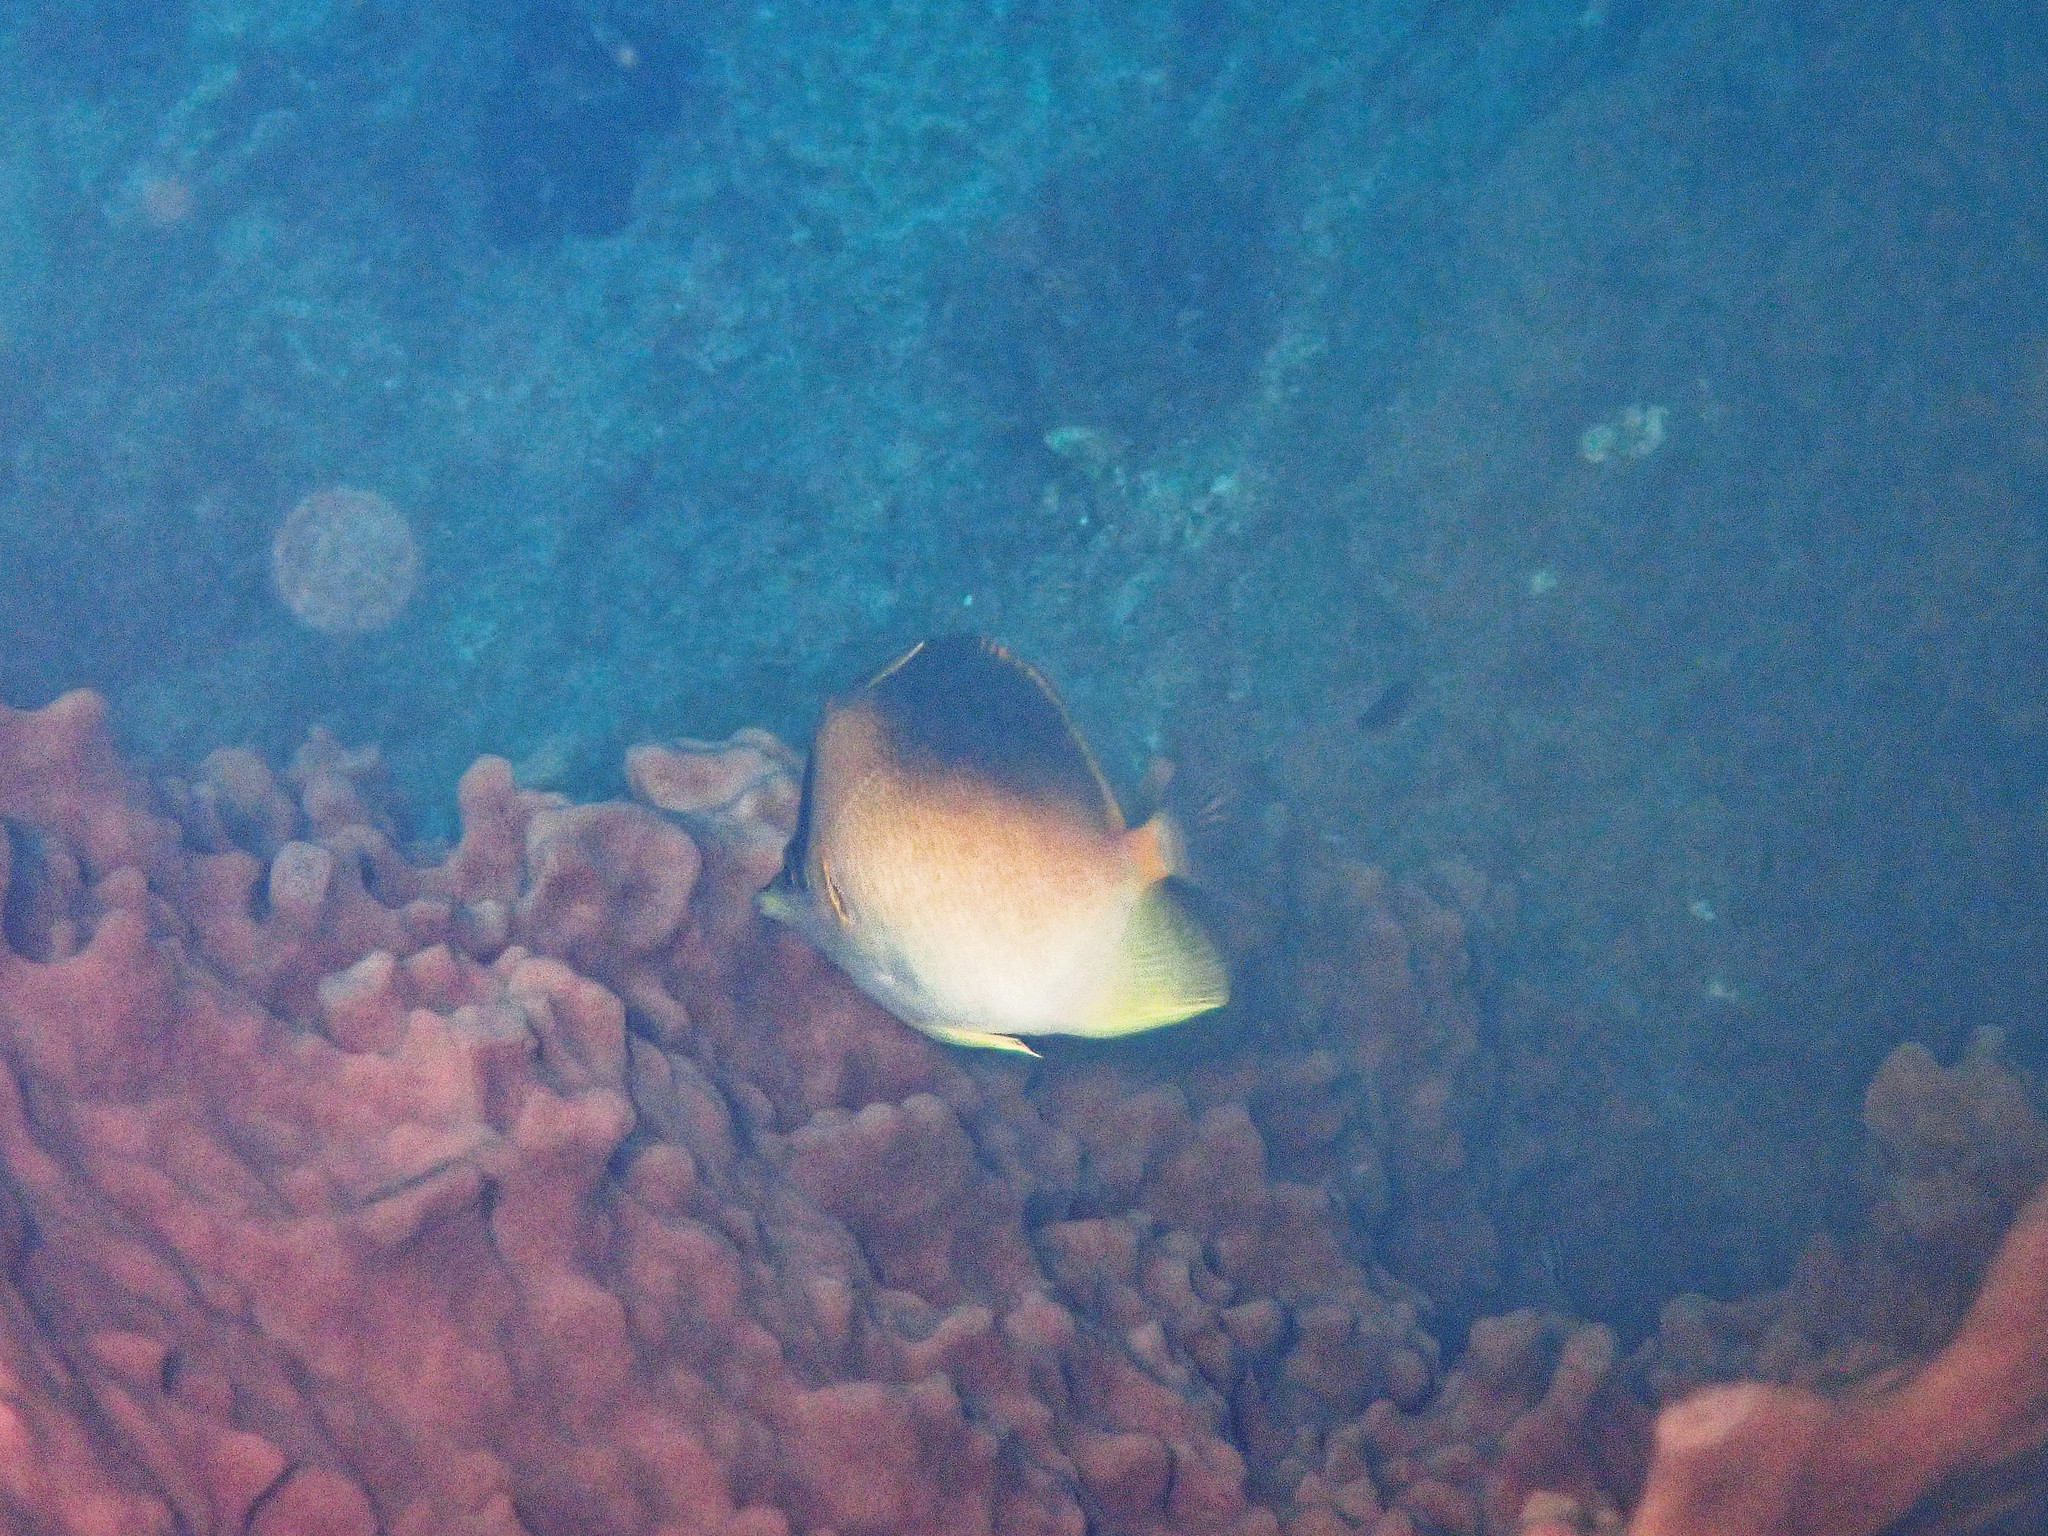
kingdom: Animalia
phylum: Chordata
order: Perciformes
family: Chaetodontidae
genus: Prognathodes
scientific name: Prognathodes aculeatus
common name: Longsnout butterflyfish
